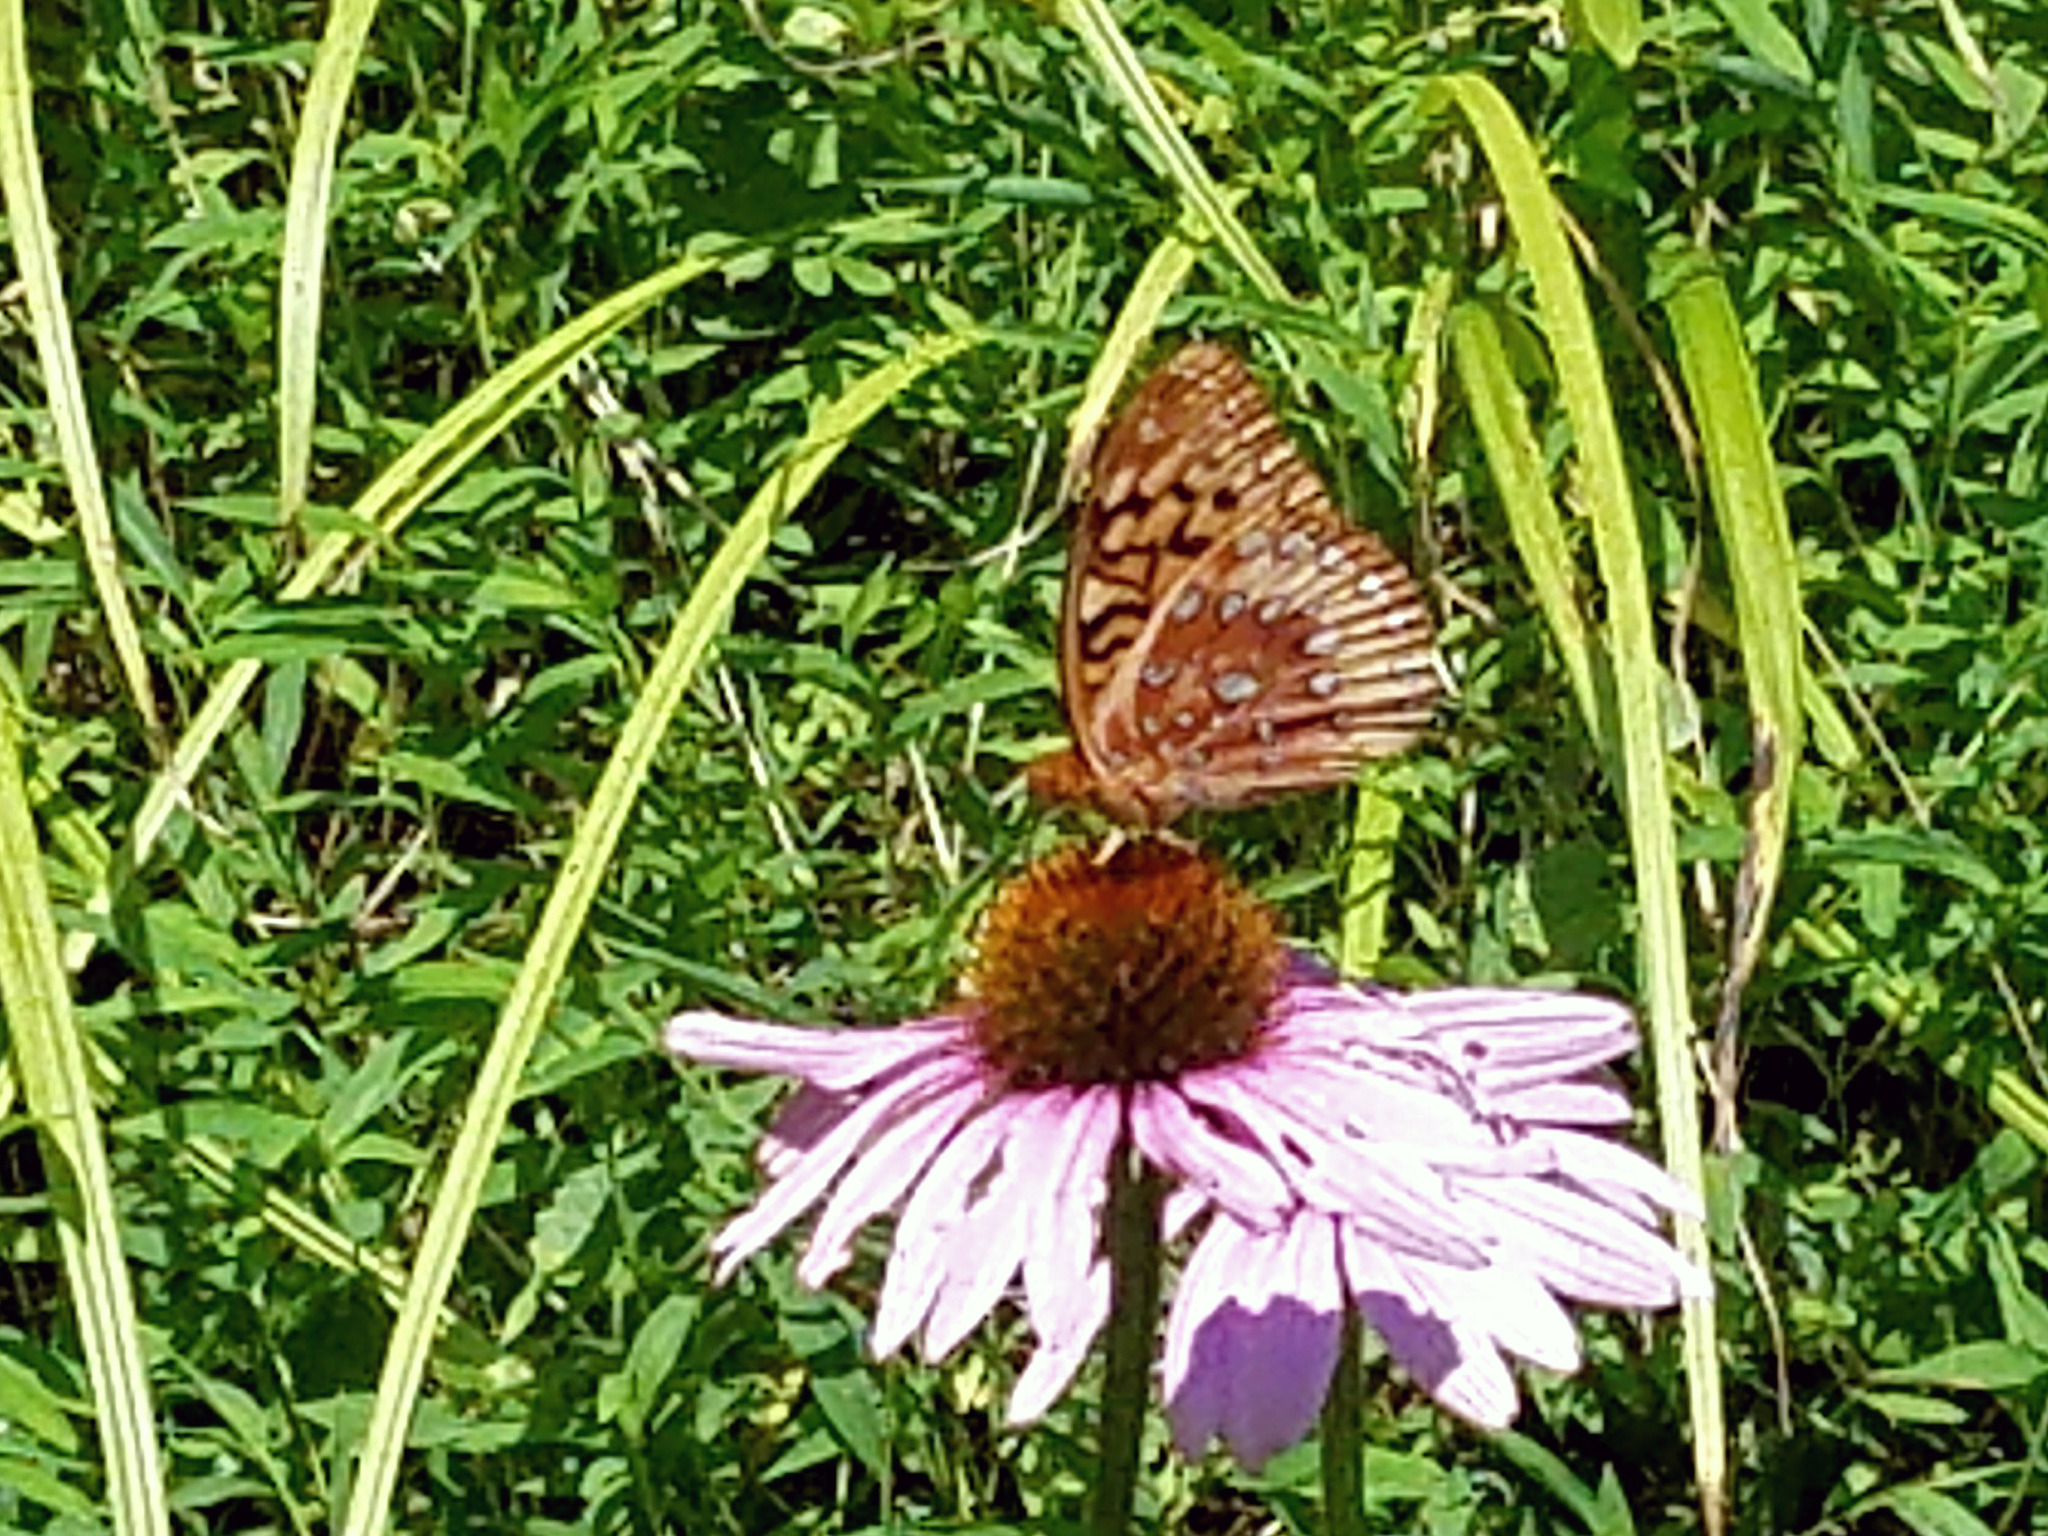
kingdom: Animalia
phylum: Arthropoda
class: Insecta
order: Lepidoptera
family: Nymphalidae
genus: Speyeria
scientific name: Speyeria cybele
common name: Great spangled fritillary
